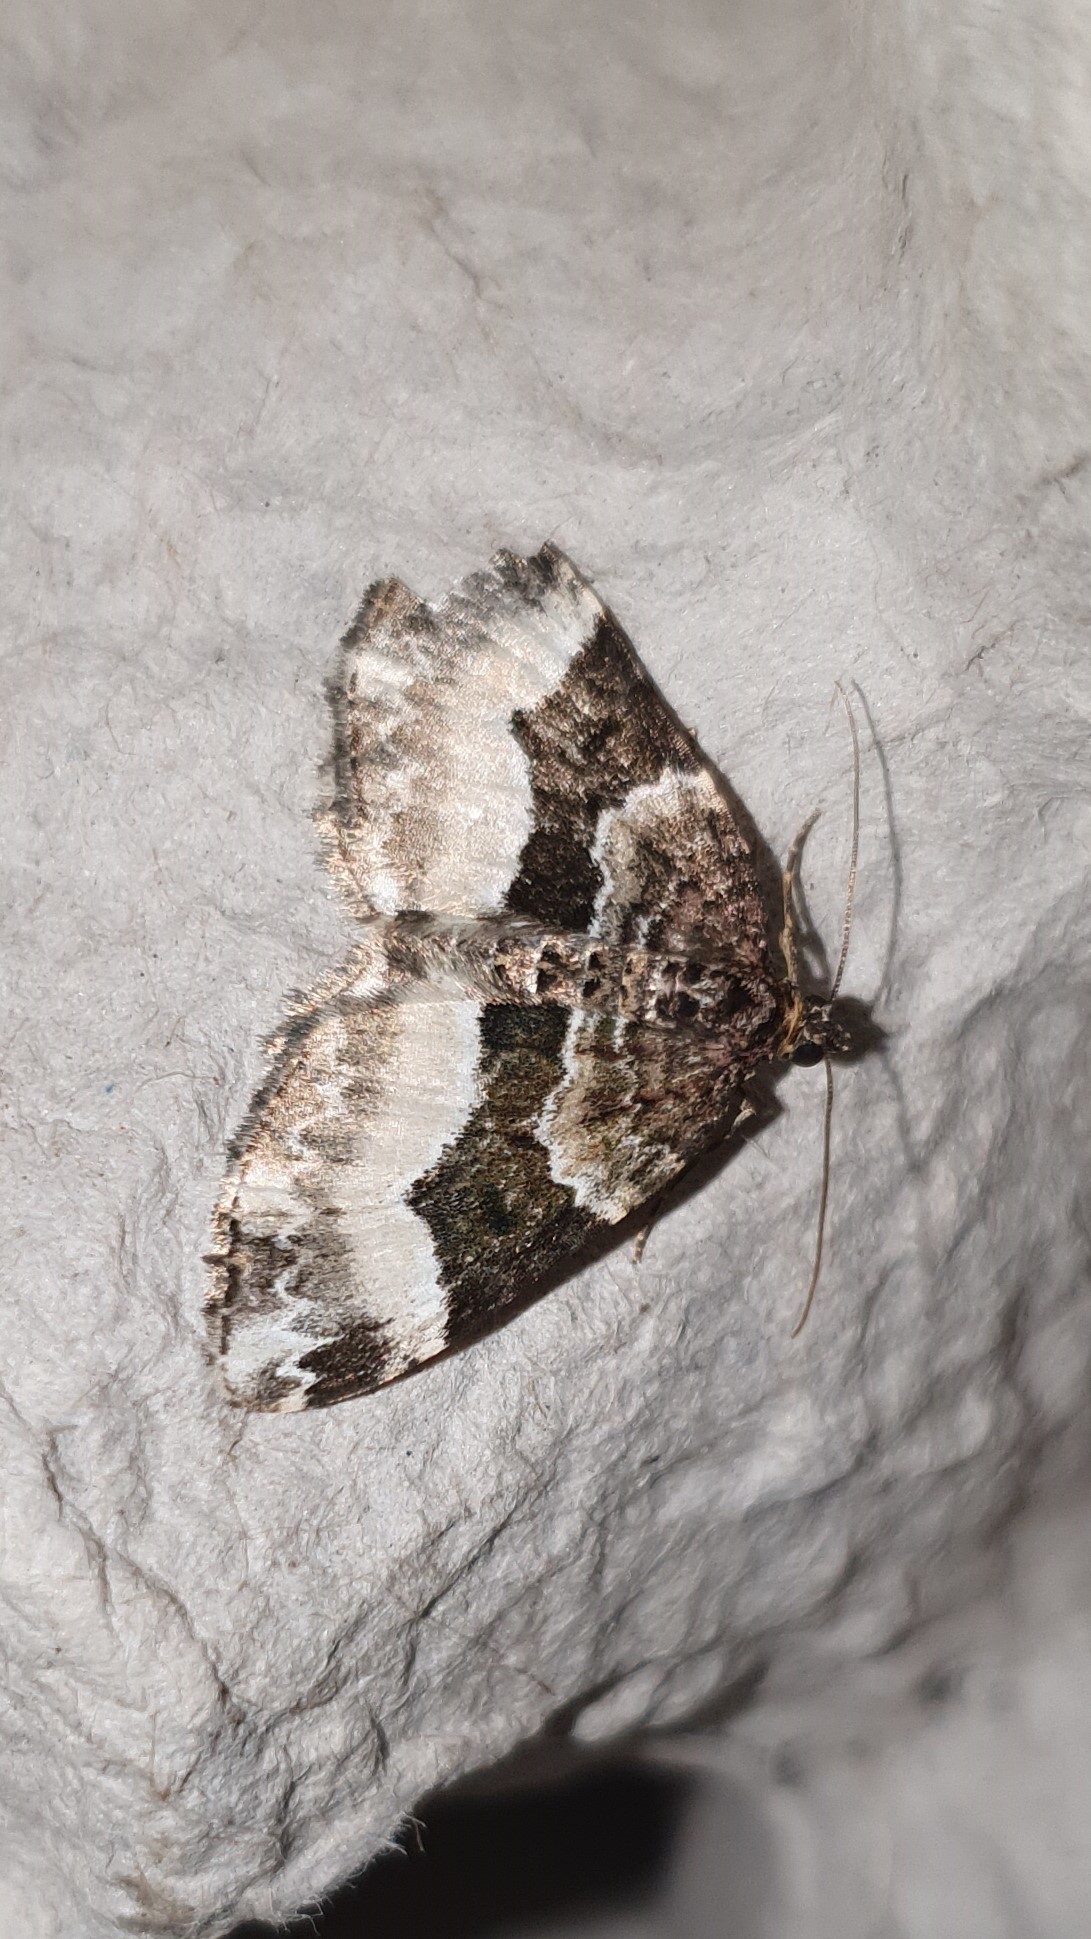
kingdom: Animalia
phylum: Arthropoda
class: Insecta
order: Lepidoptera
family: Geometridae
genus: Euphyia
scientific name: Euphyia unangulata
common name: Sharp-angled carpet
